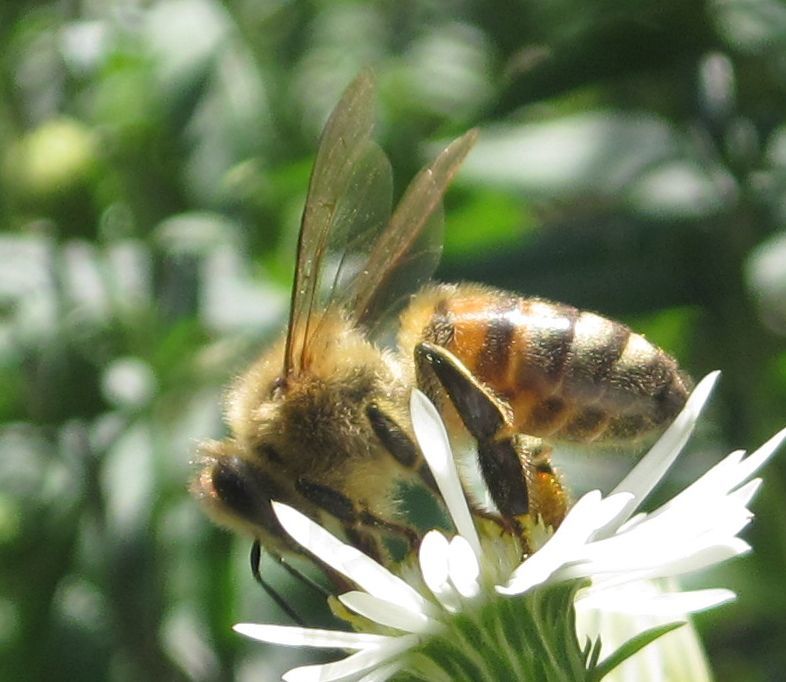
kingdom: Animalia
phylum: Arthropoda
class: Insecta
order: Hymenoptera
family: Apidae
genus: Apis
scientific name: Apis mellifera
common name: Honey bee
